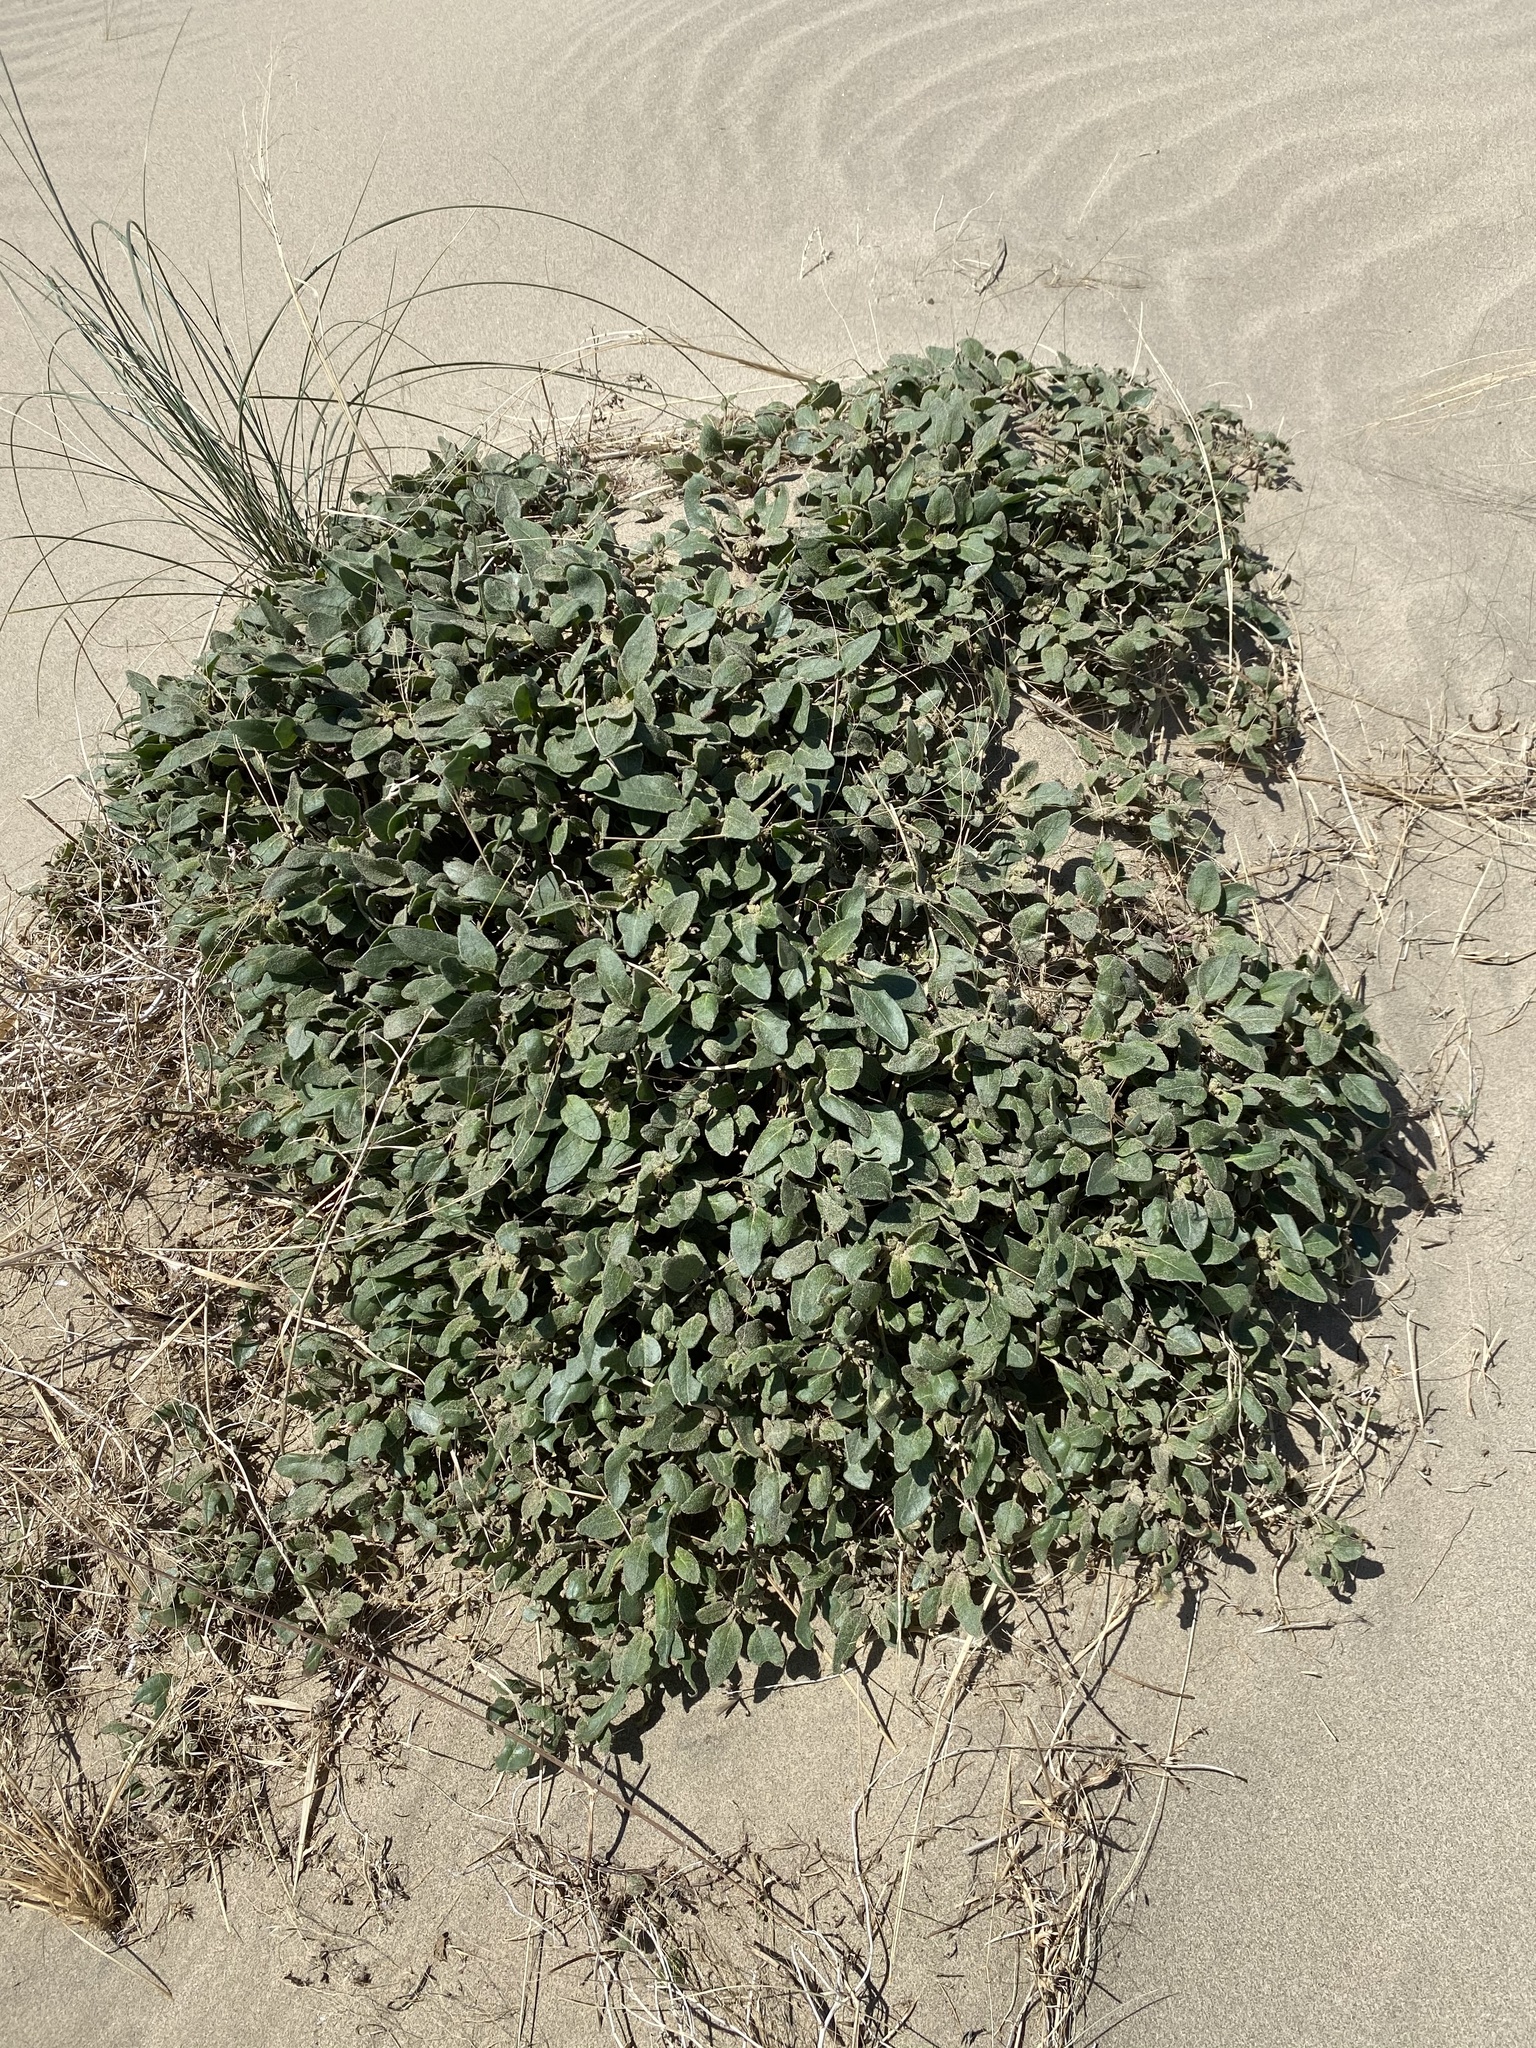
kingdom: Plantae
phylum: Tracheophyta
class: Magnoliopsida
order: Caryophyllales
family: Nyctaginaceae
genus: Abronia
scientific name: Abronia mellifera
